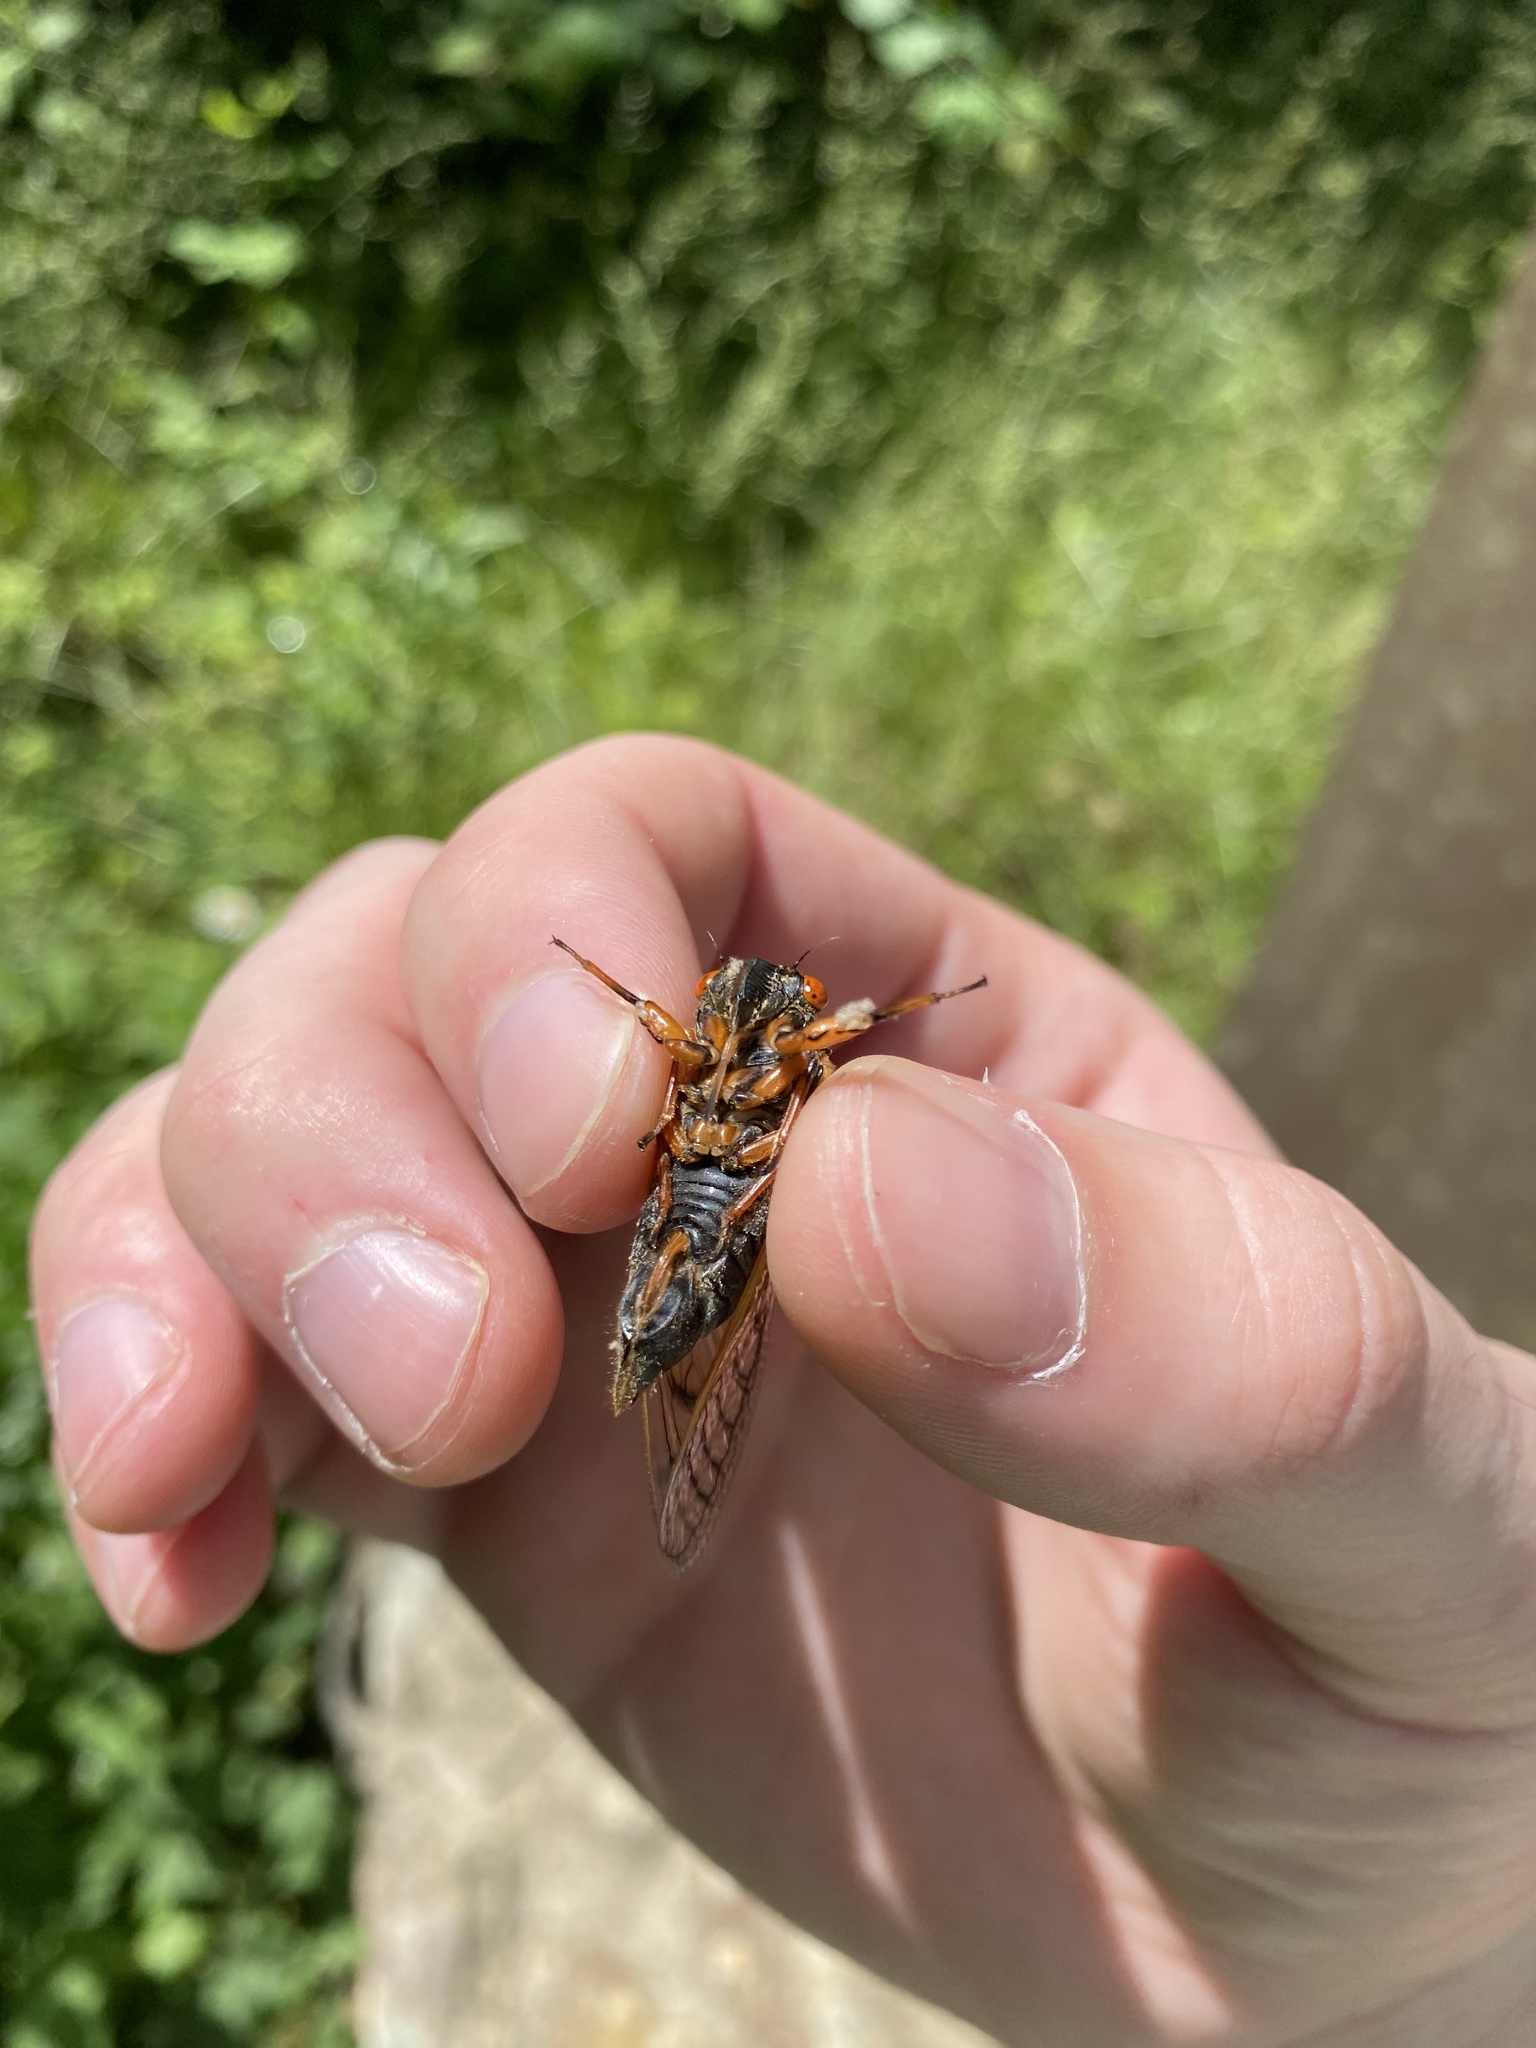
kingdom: Animalia
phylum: Arthropoda
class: Insecta
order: Hemiptera
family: Cicadidae
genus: Magicicada
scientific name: Magicicada cassini
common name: Cassin's 17-year cicada
